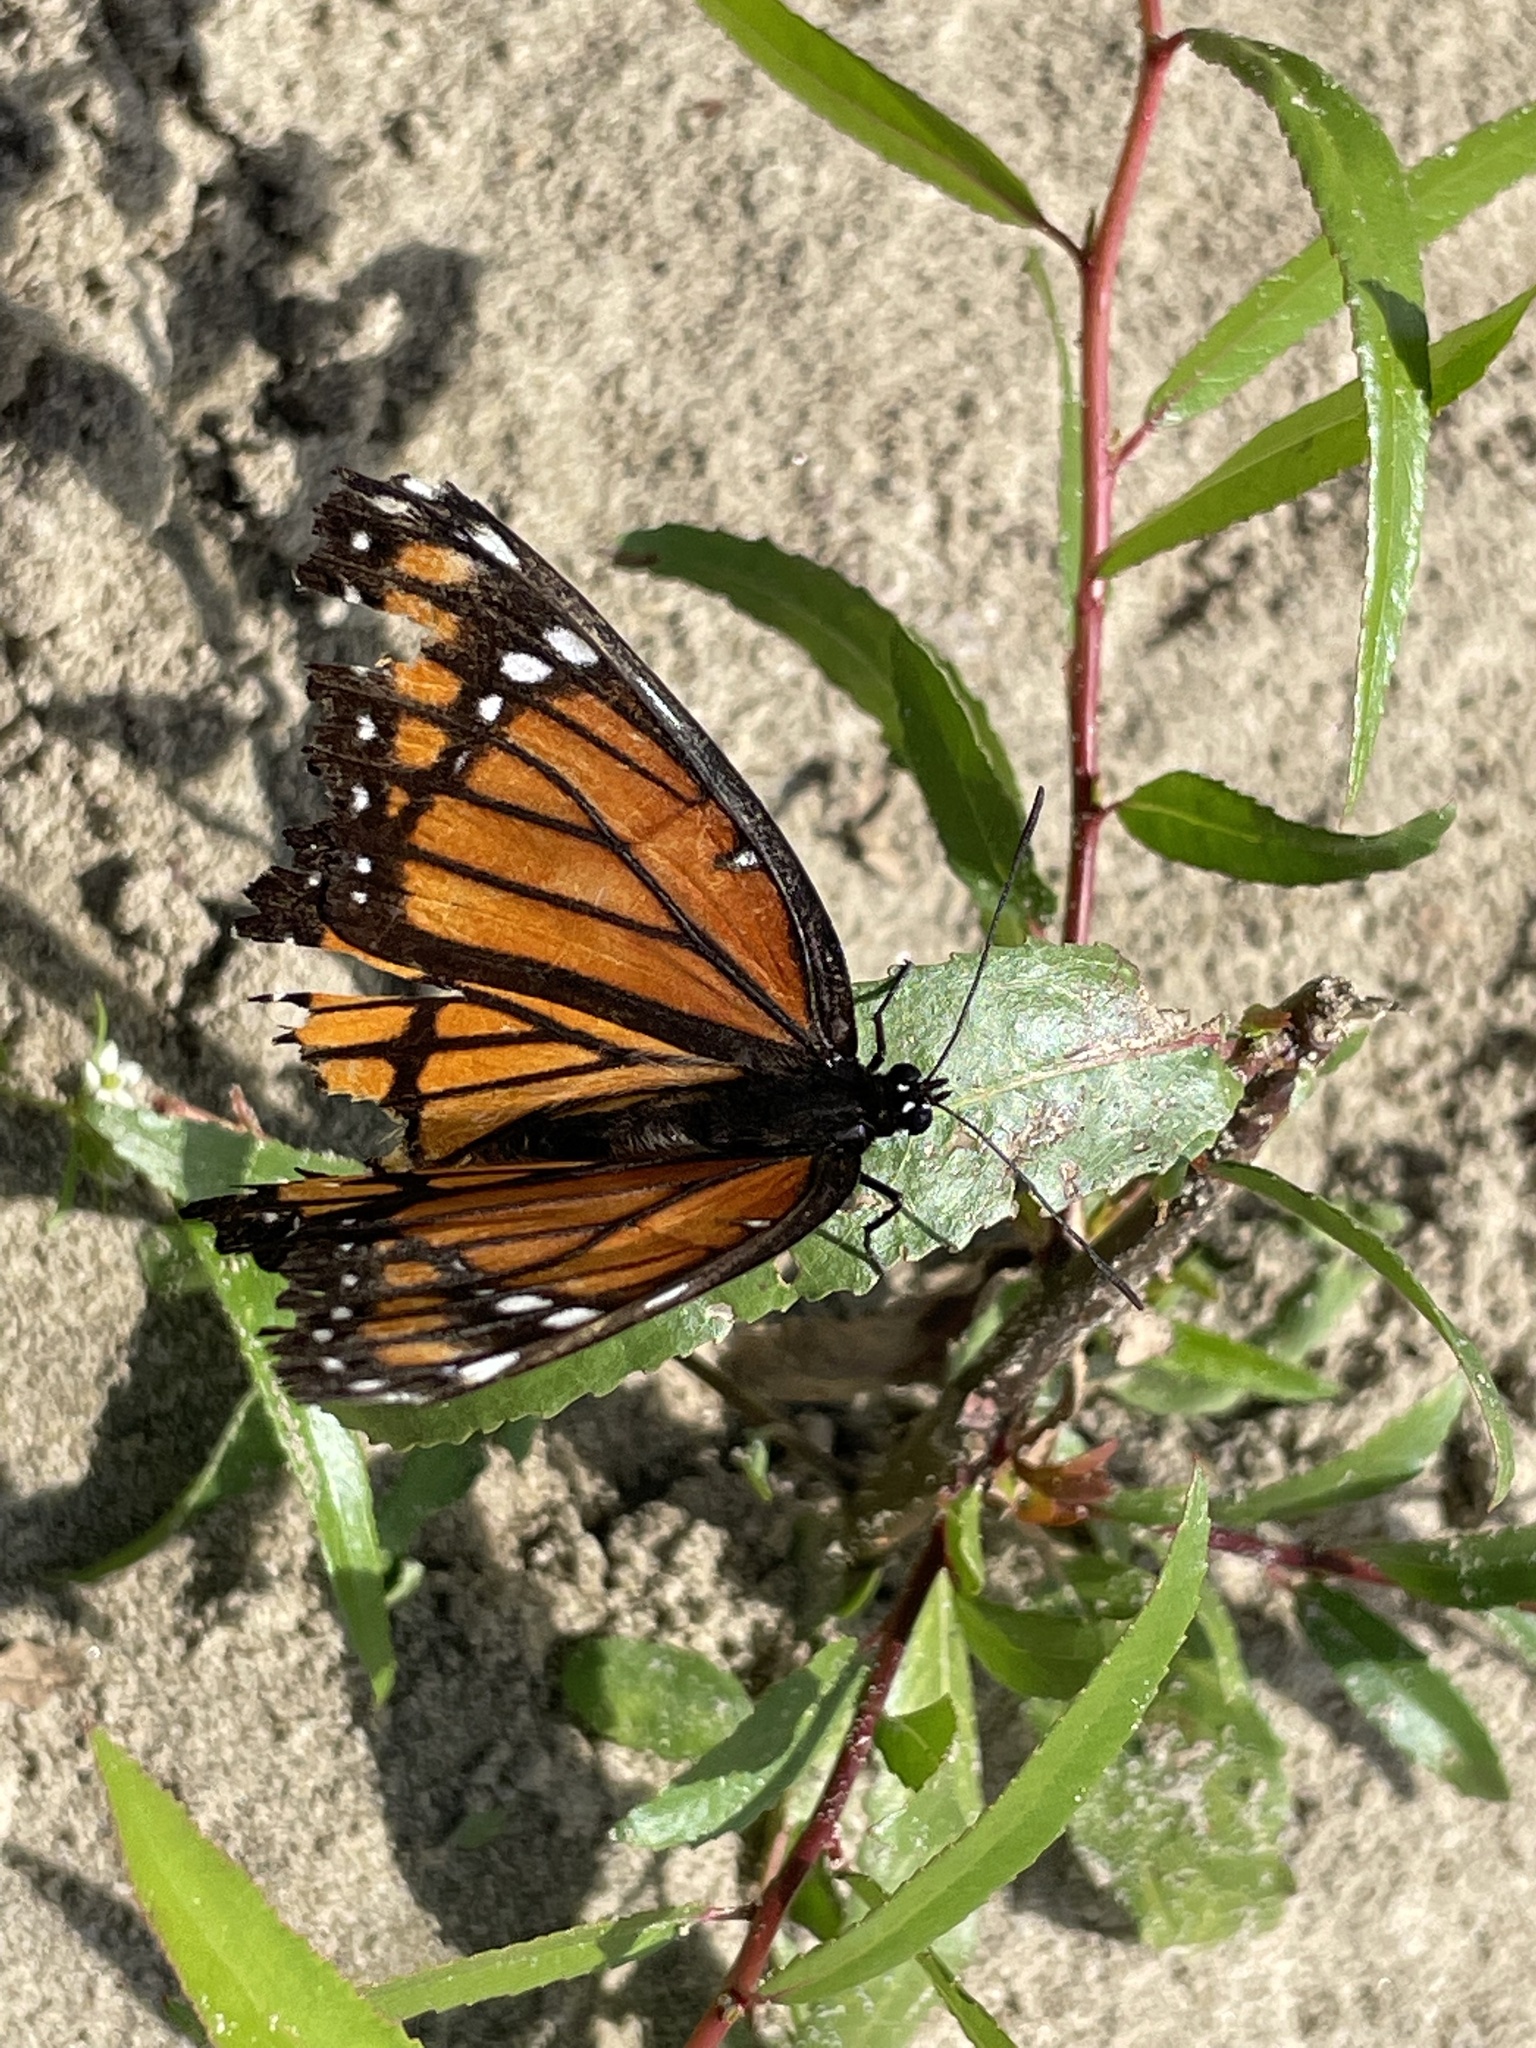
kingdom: Animalia
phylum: Arthropoda
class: Insecta
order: Lepidoptera
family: Nymphalidae
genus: Limenitis
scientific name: Limenitis archippus
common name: Viceroy
